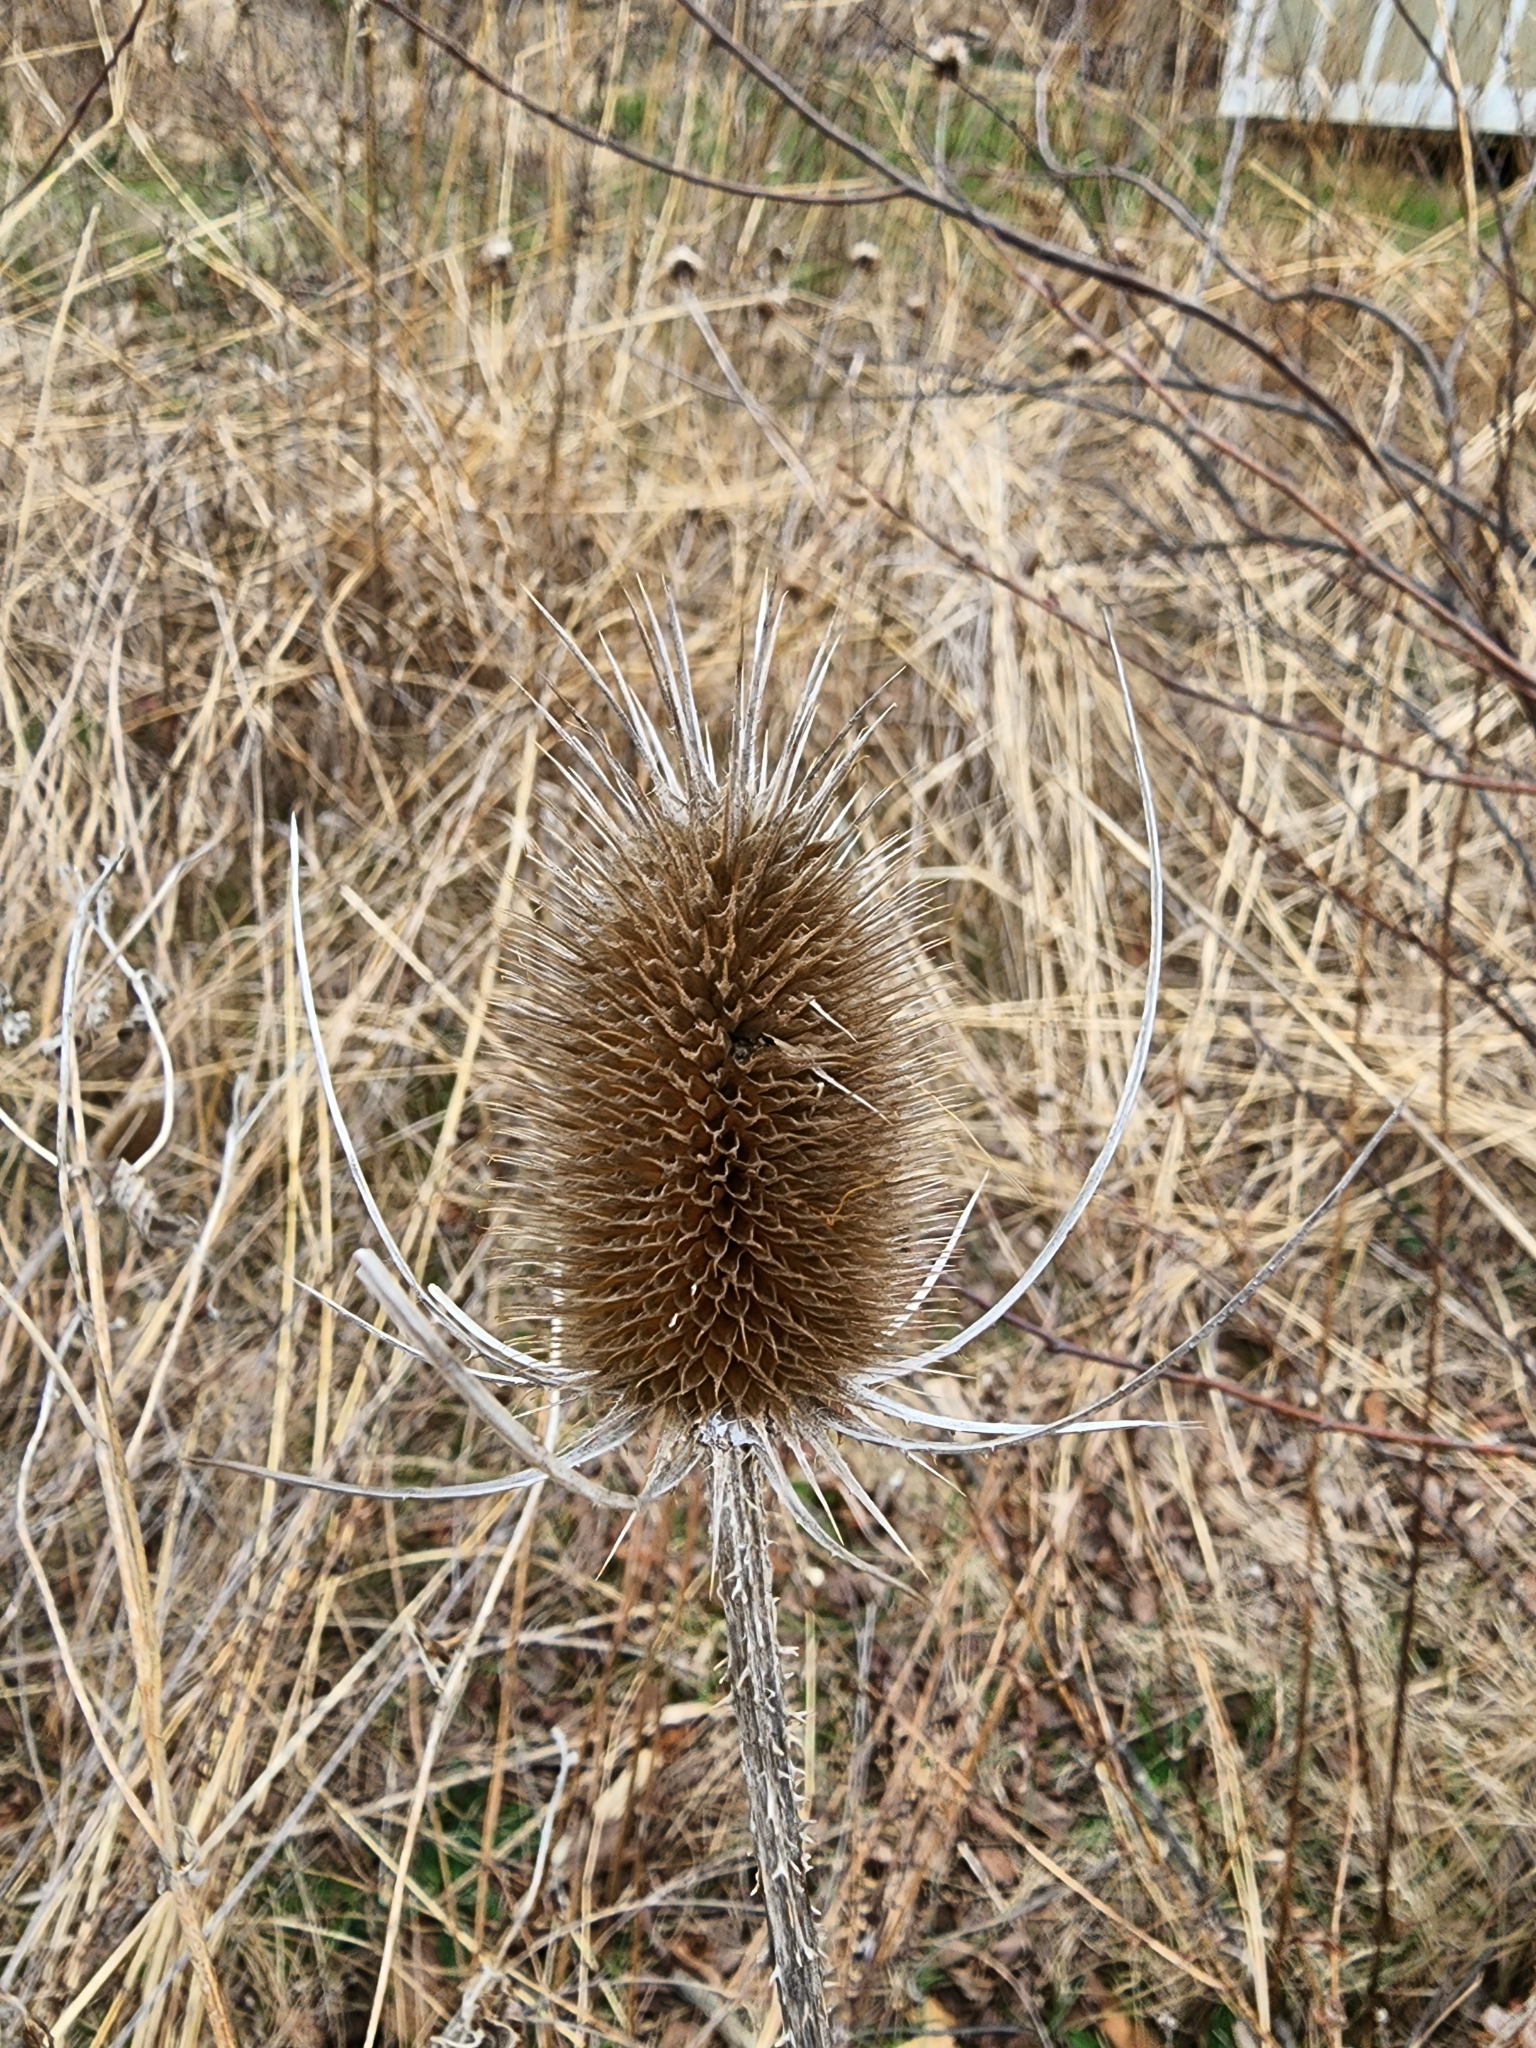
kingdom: Plantae
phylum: Tracheophyta
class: Magnoliopsida
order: Dipsacales
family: Caprifoliaceae
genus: Dipsacus
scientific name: Dipsacus fullonum
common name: Teasel
